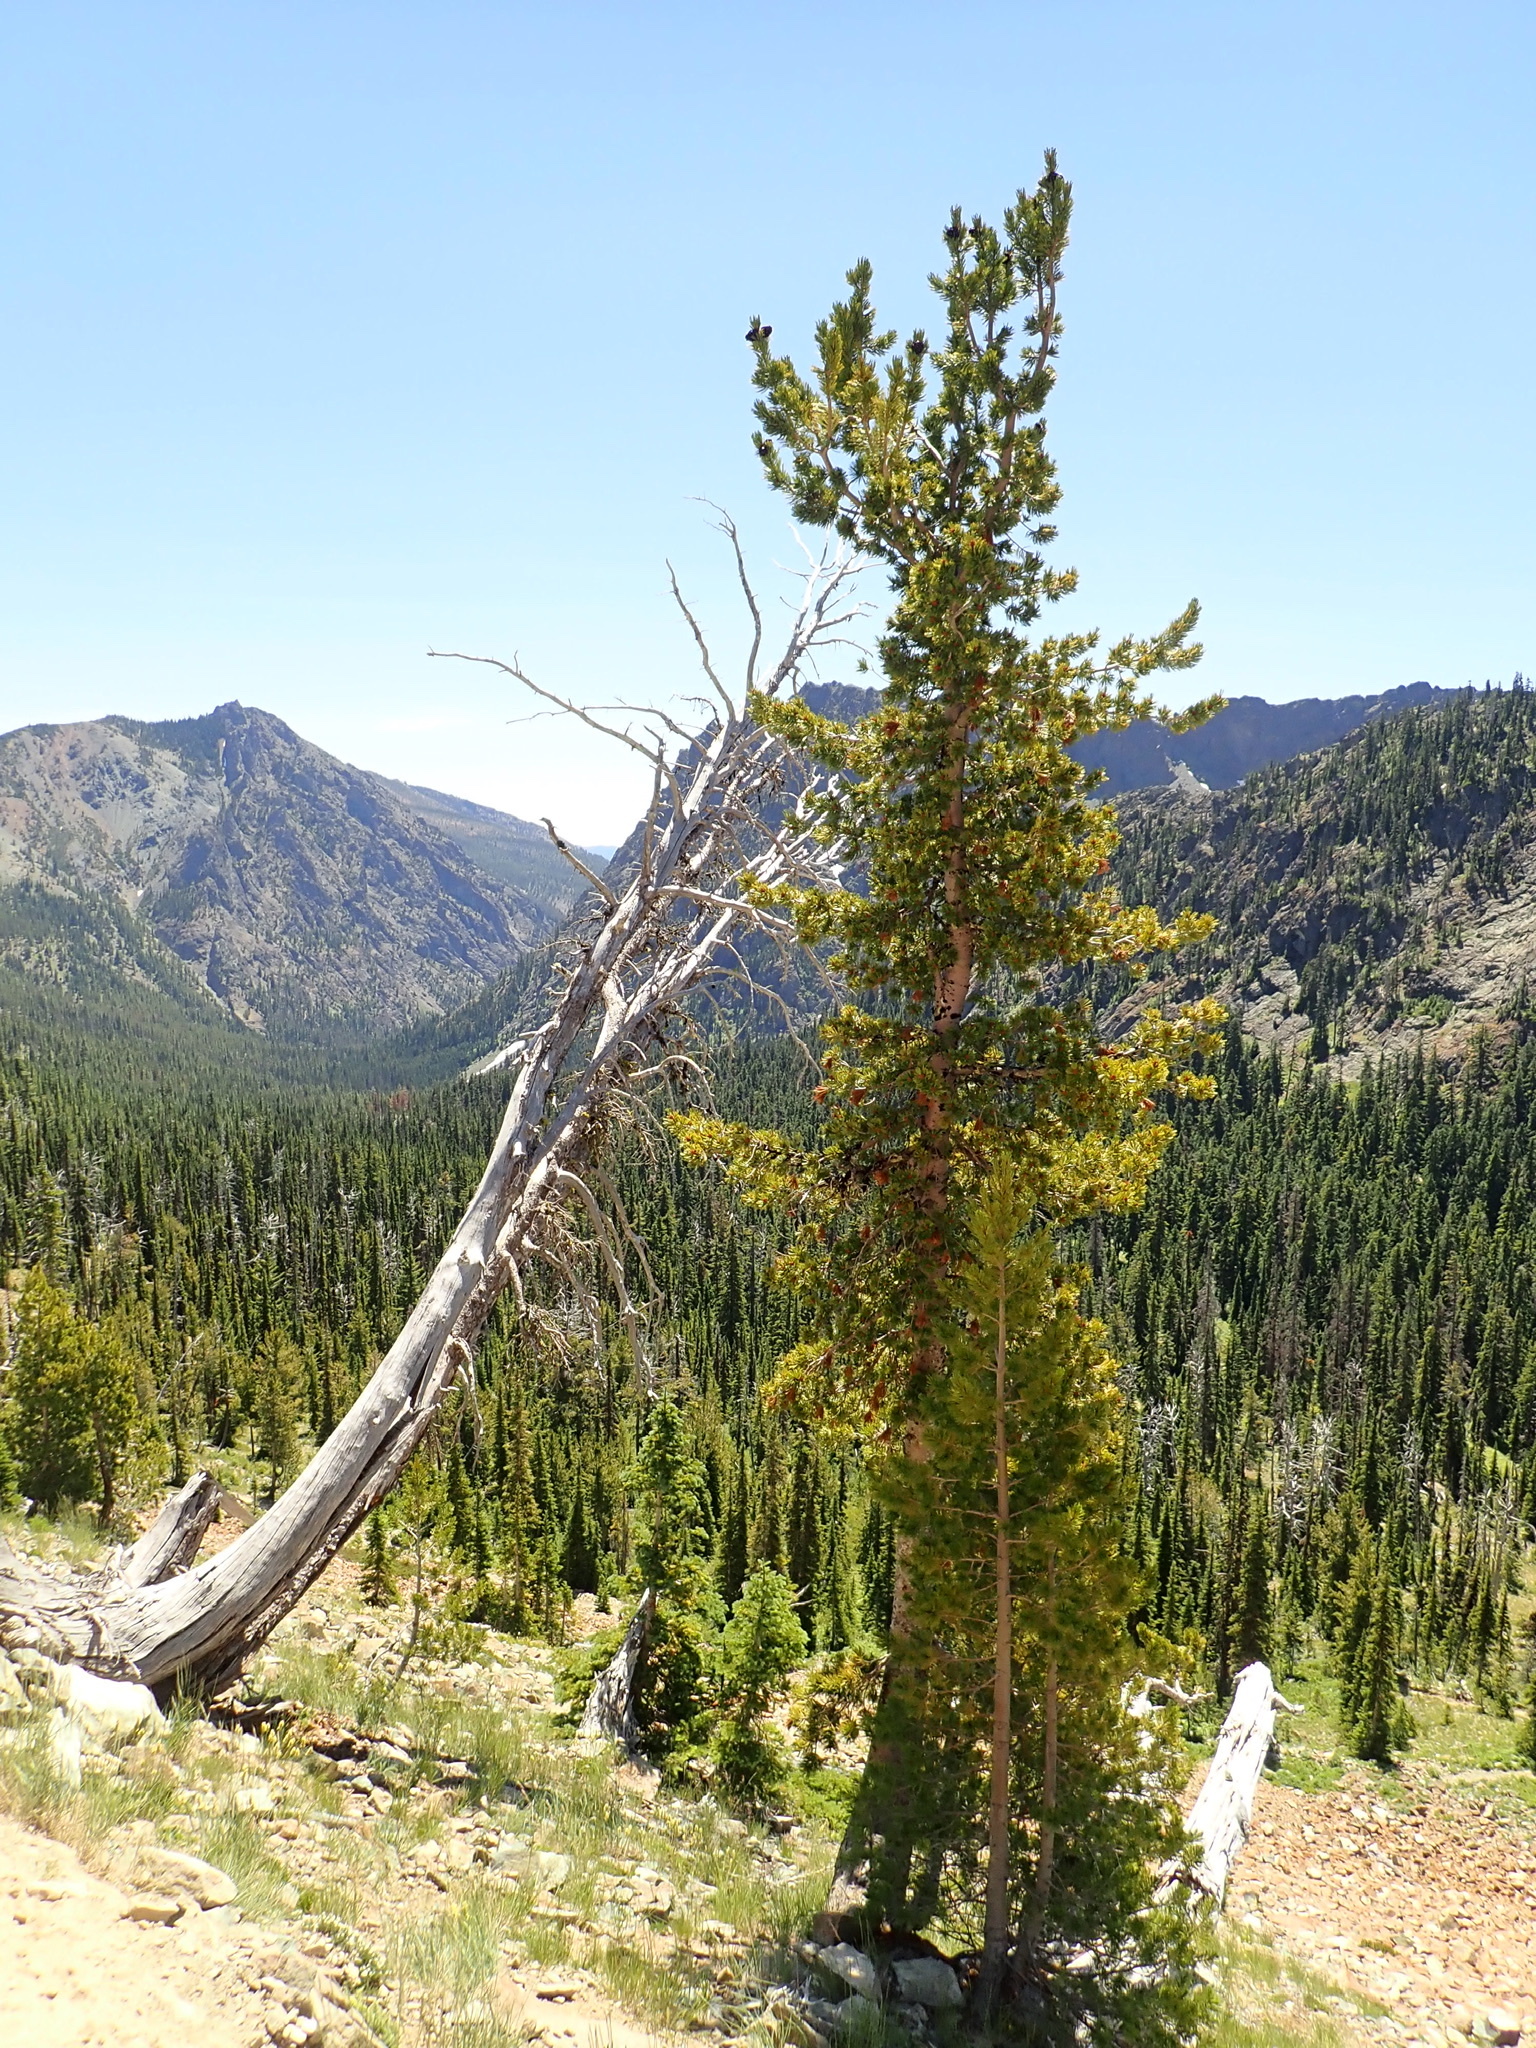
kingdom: Plantae
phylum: Tracheophyta
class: Pinopsida
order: Pinales
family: Pinaceae
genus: Pinus
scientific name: Pinus albicaulis
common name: Whitebark pine
